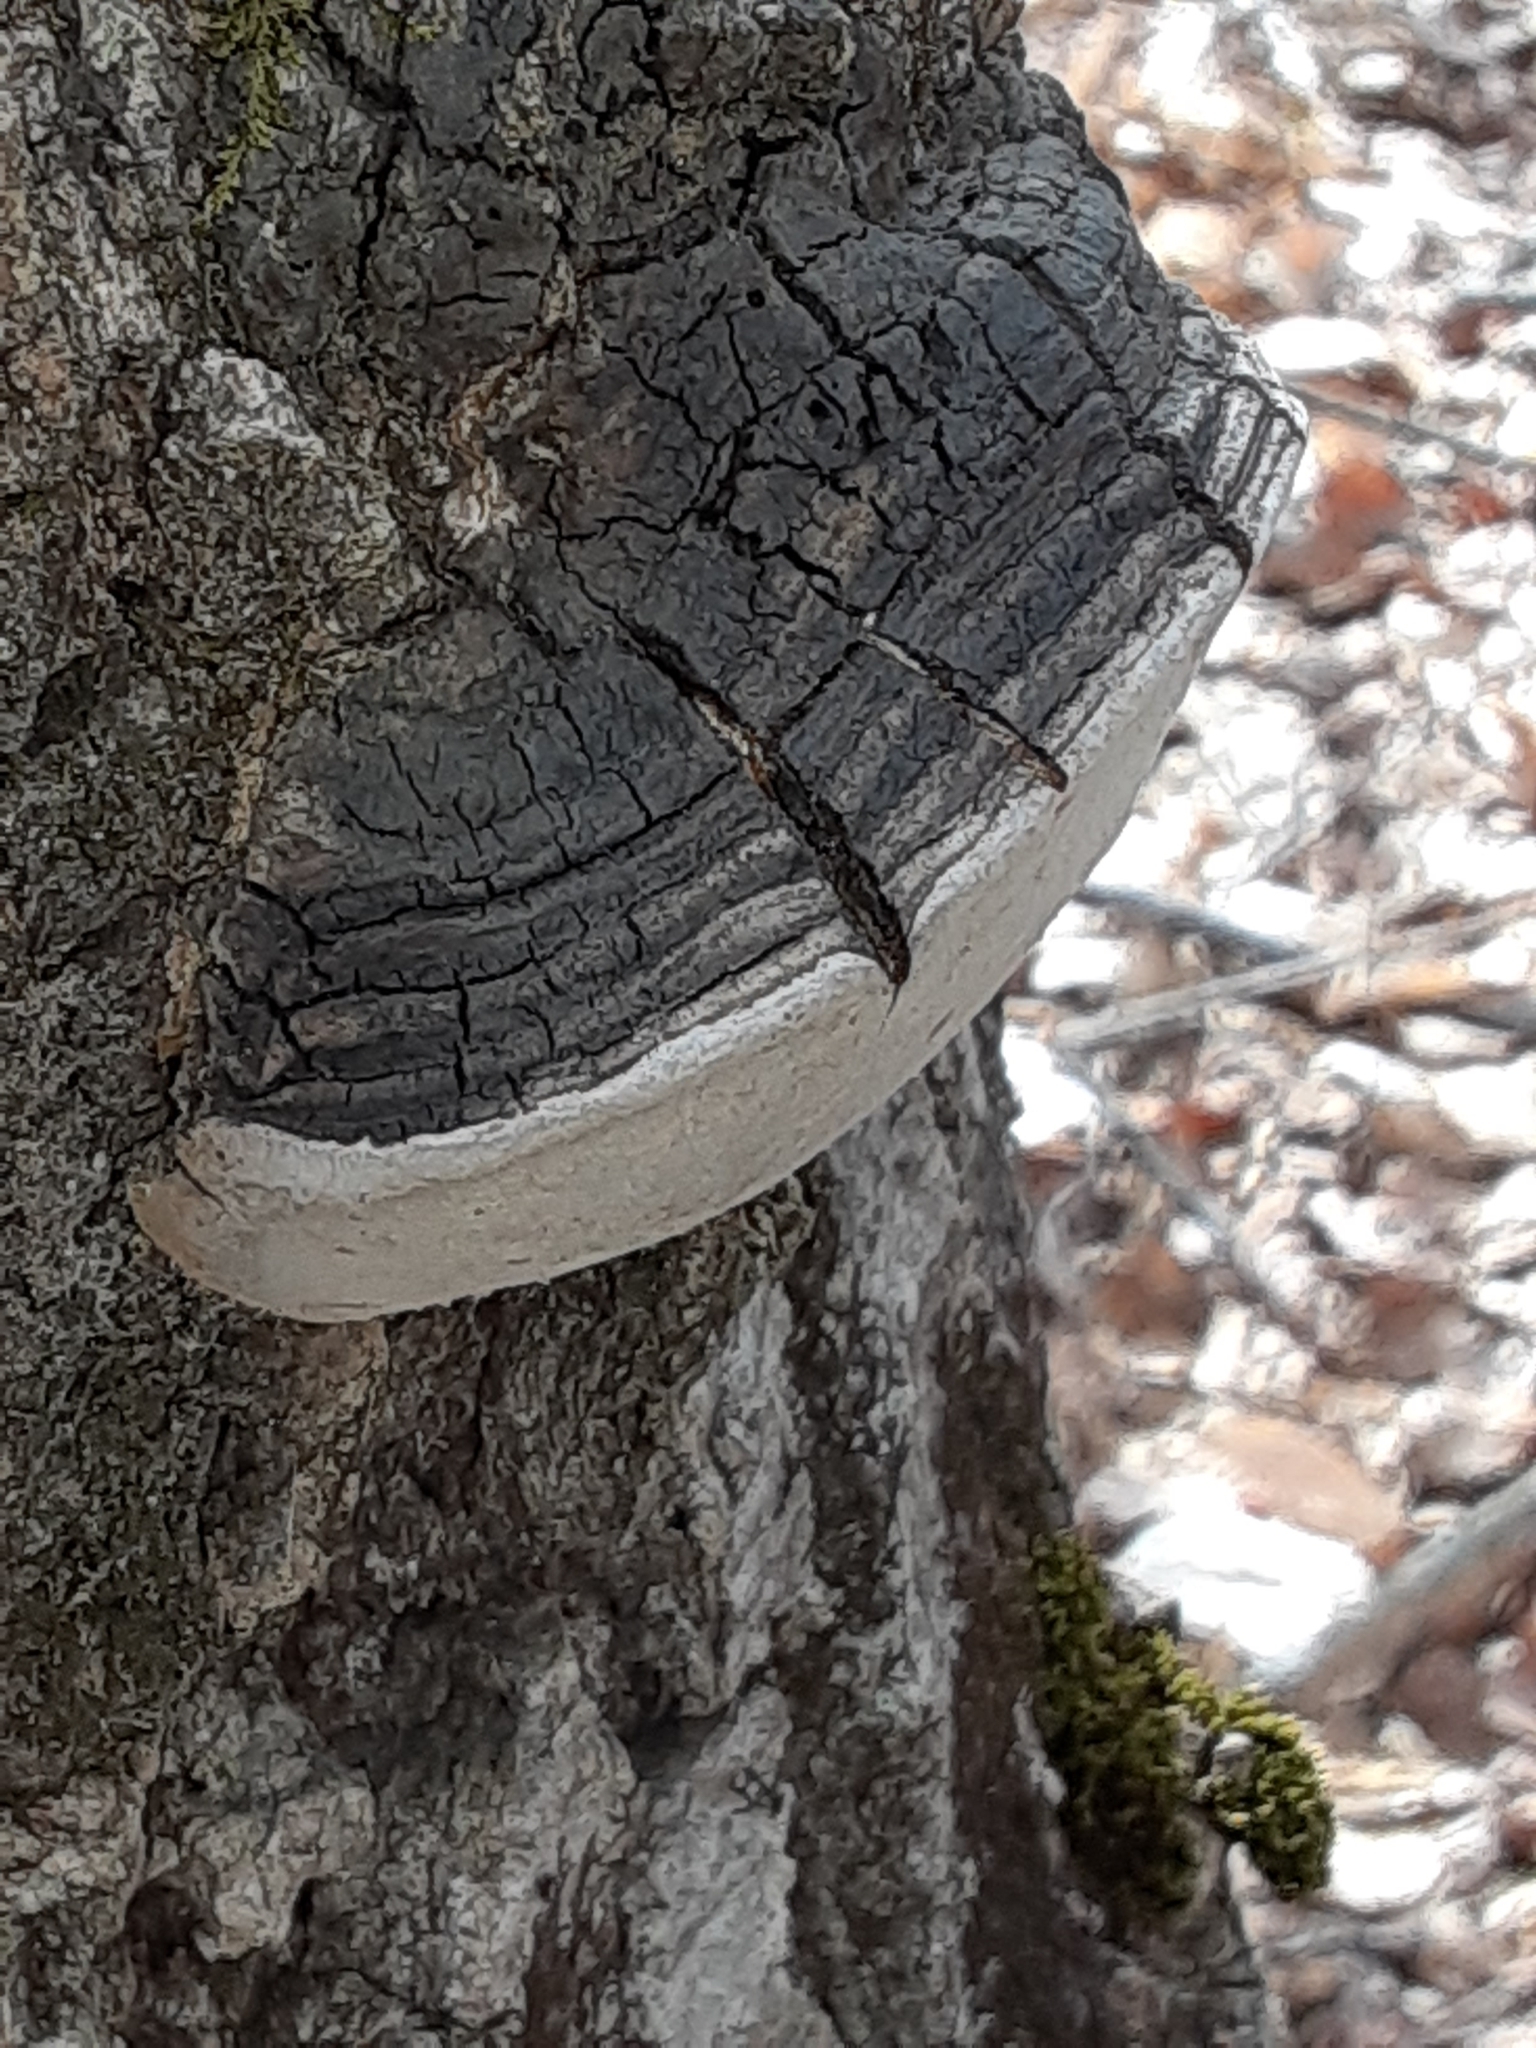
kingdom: Fungi
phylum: Basidiomycota
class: Agaricomycetes
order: Hymenochaetales
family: Hymenochaetaceae
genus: Phellinus
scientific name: Phellinus tremulae
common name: Aspen bracket
